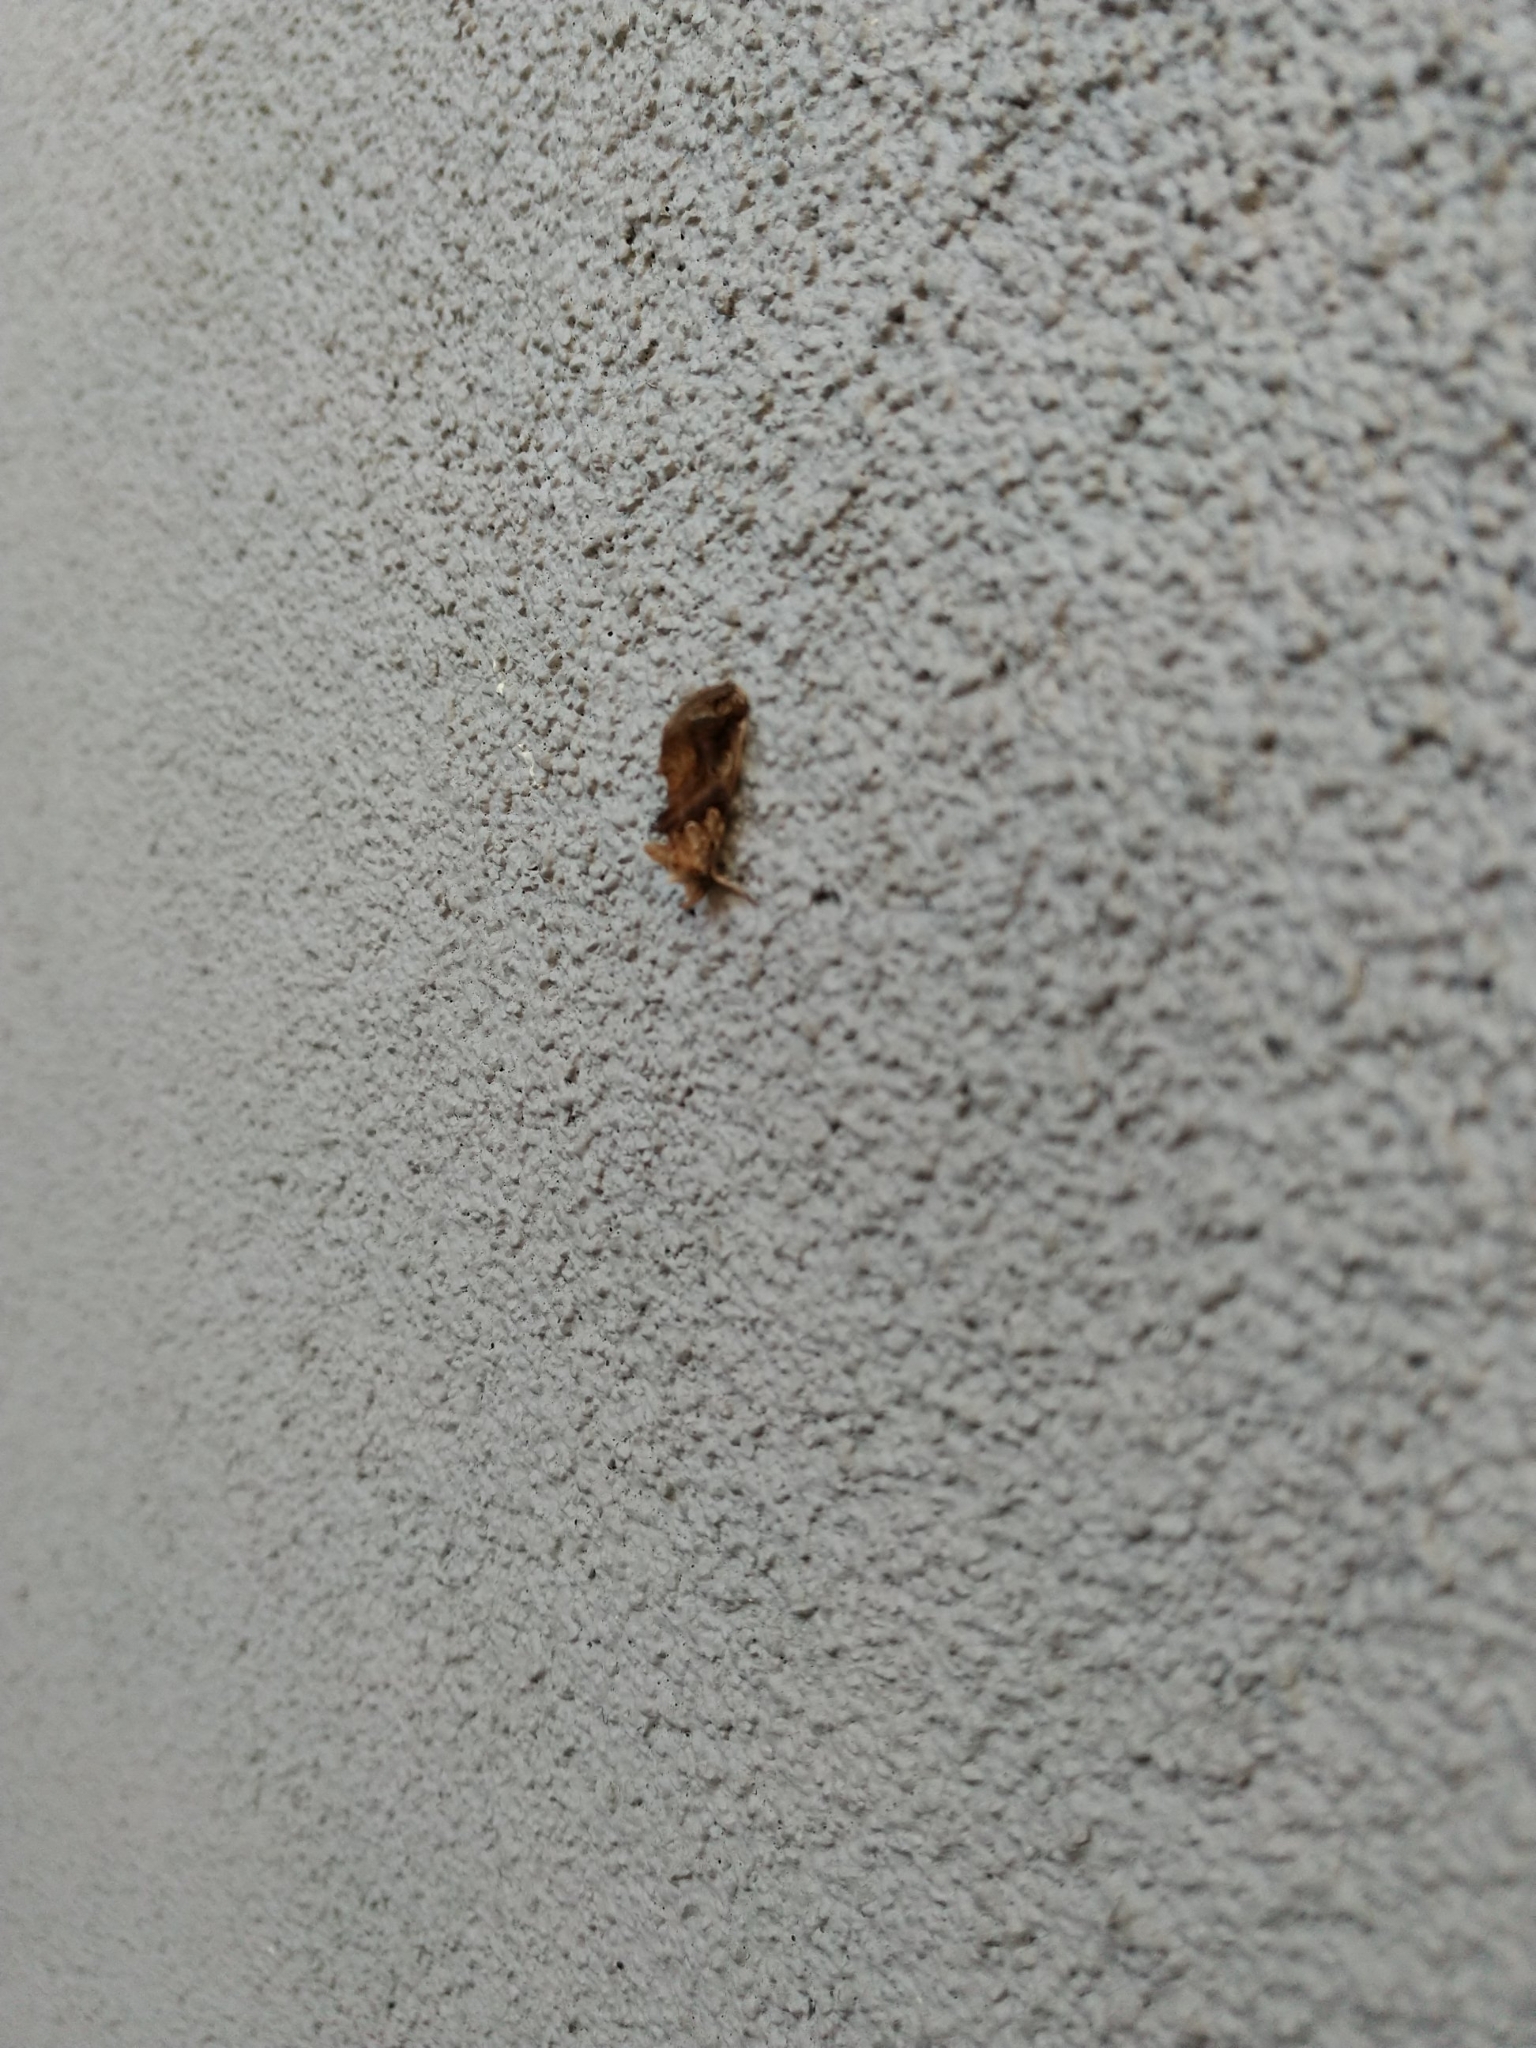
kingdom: Animalia
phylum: Arthropoda
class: Insecta
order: Lepidoptera
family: Erebidae
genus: Plusiodonta
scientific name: Plusiodonta compressipalpis
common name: Moonseed moth
